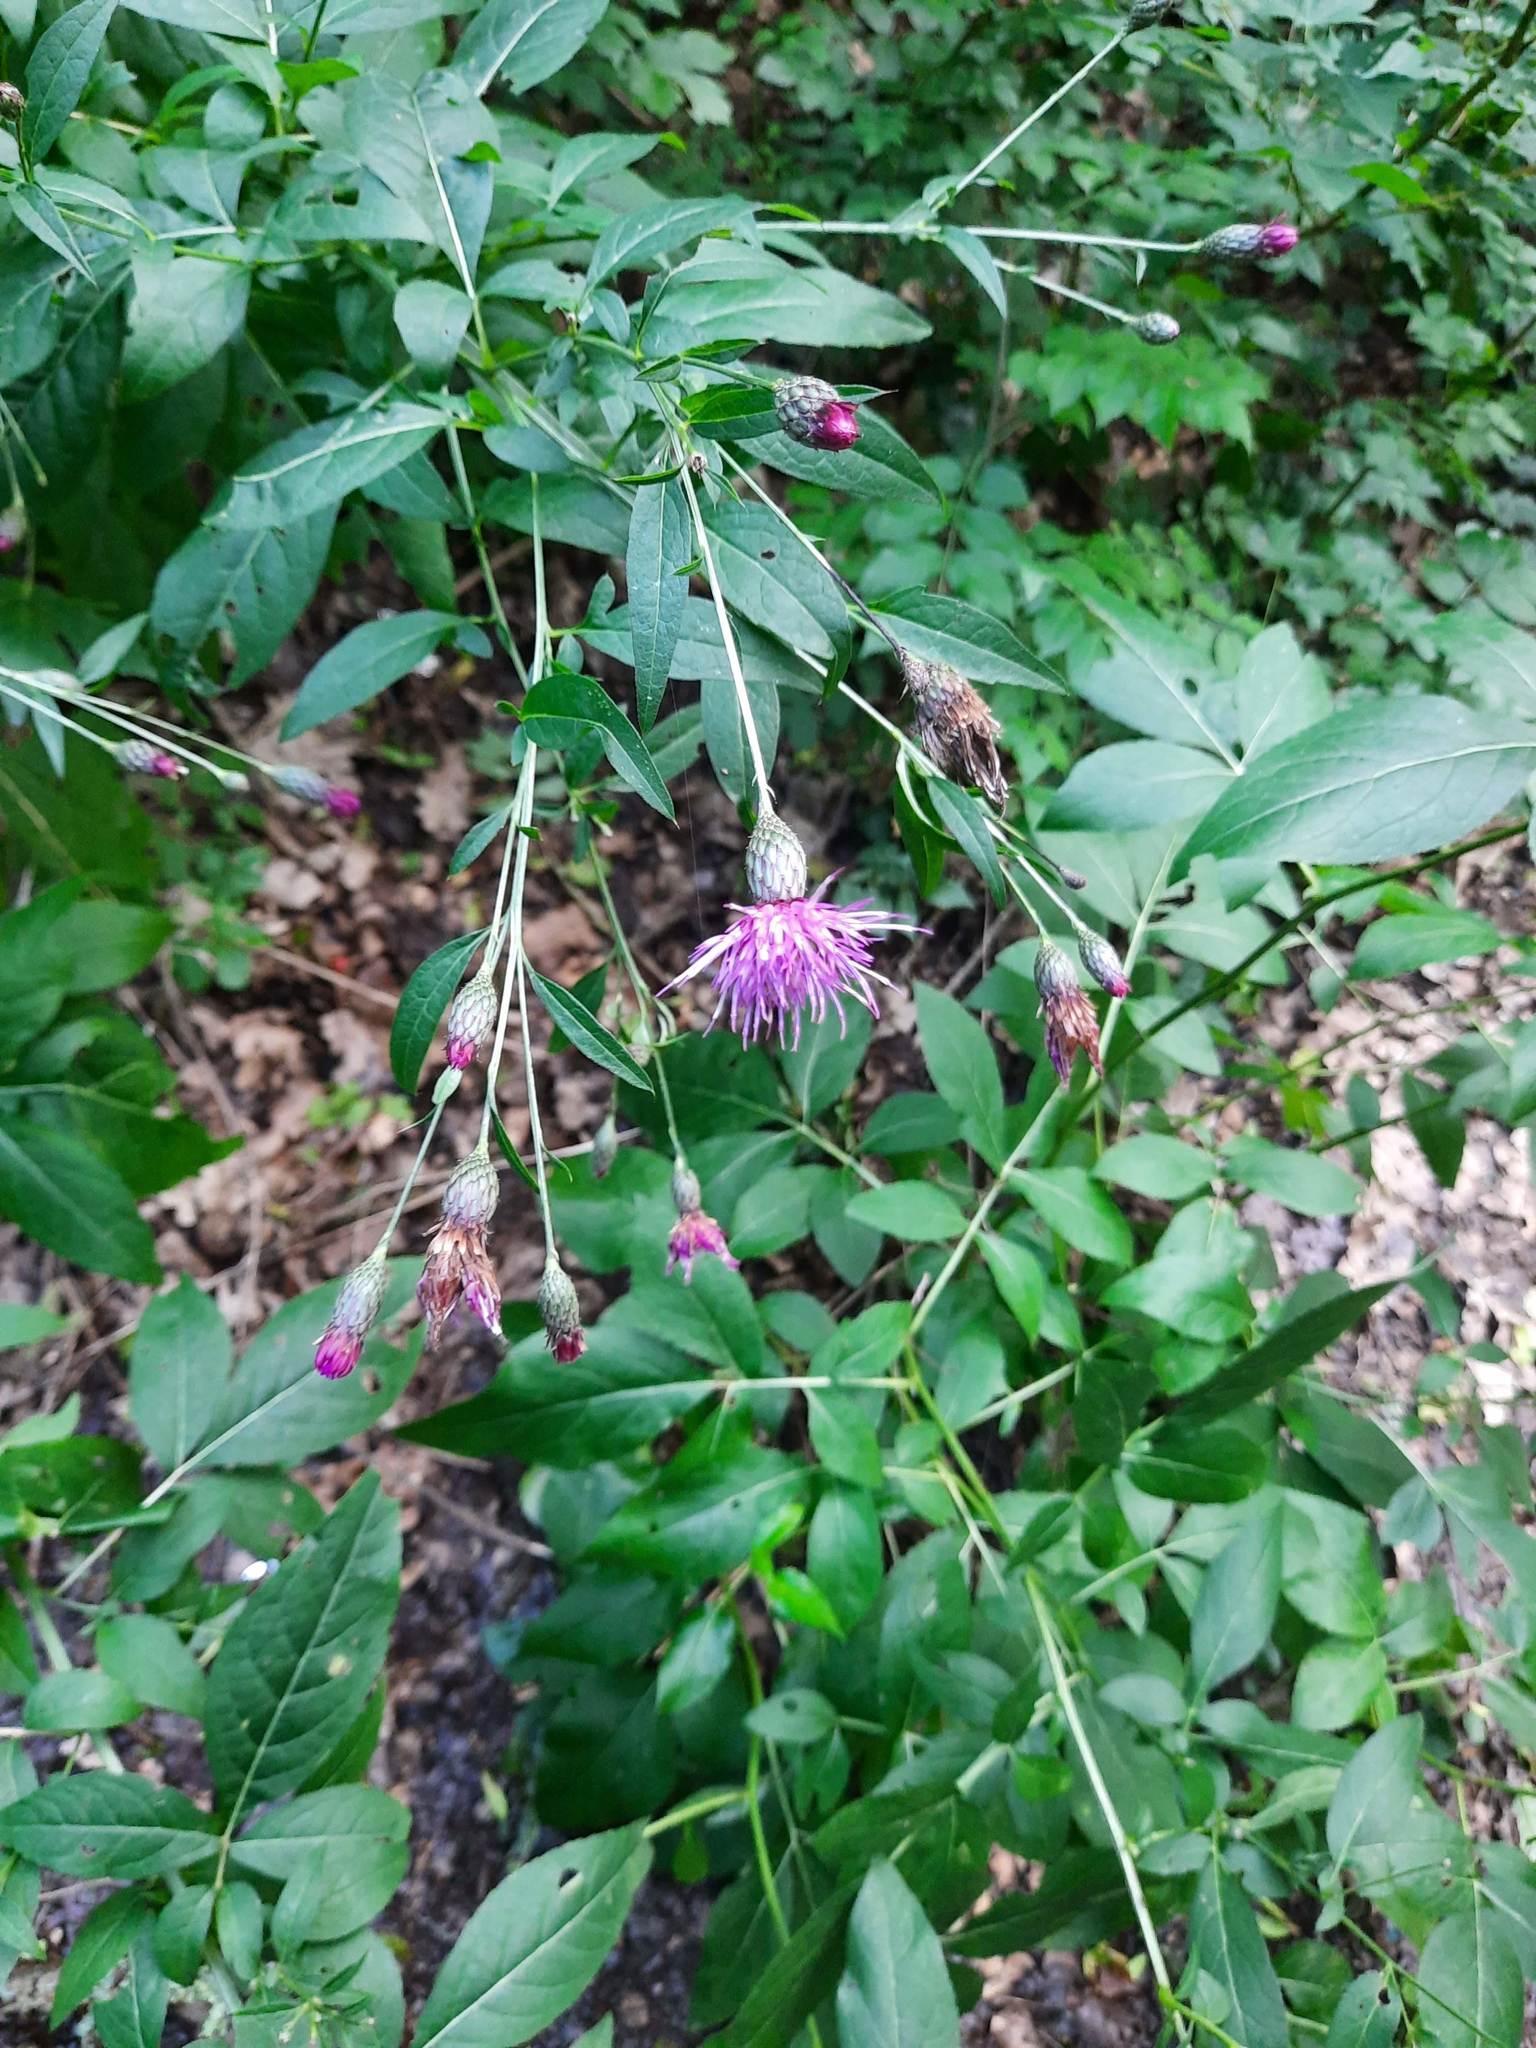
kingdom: Plantae
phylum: Tracheophyta
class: Magnoliopsida
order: Asterales
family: Asteraceae
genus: Klasea
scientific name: Klasea quinquefolia
